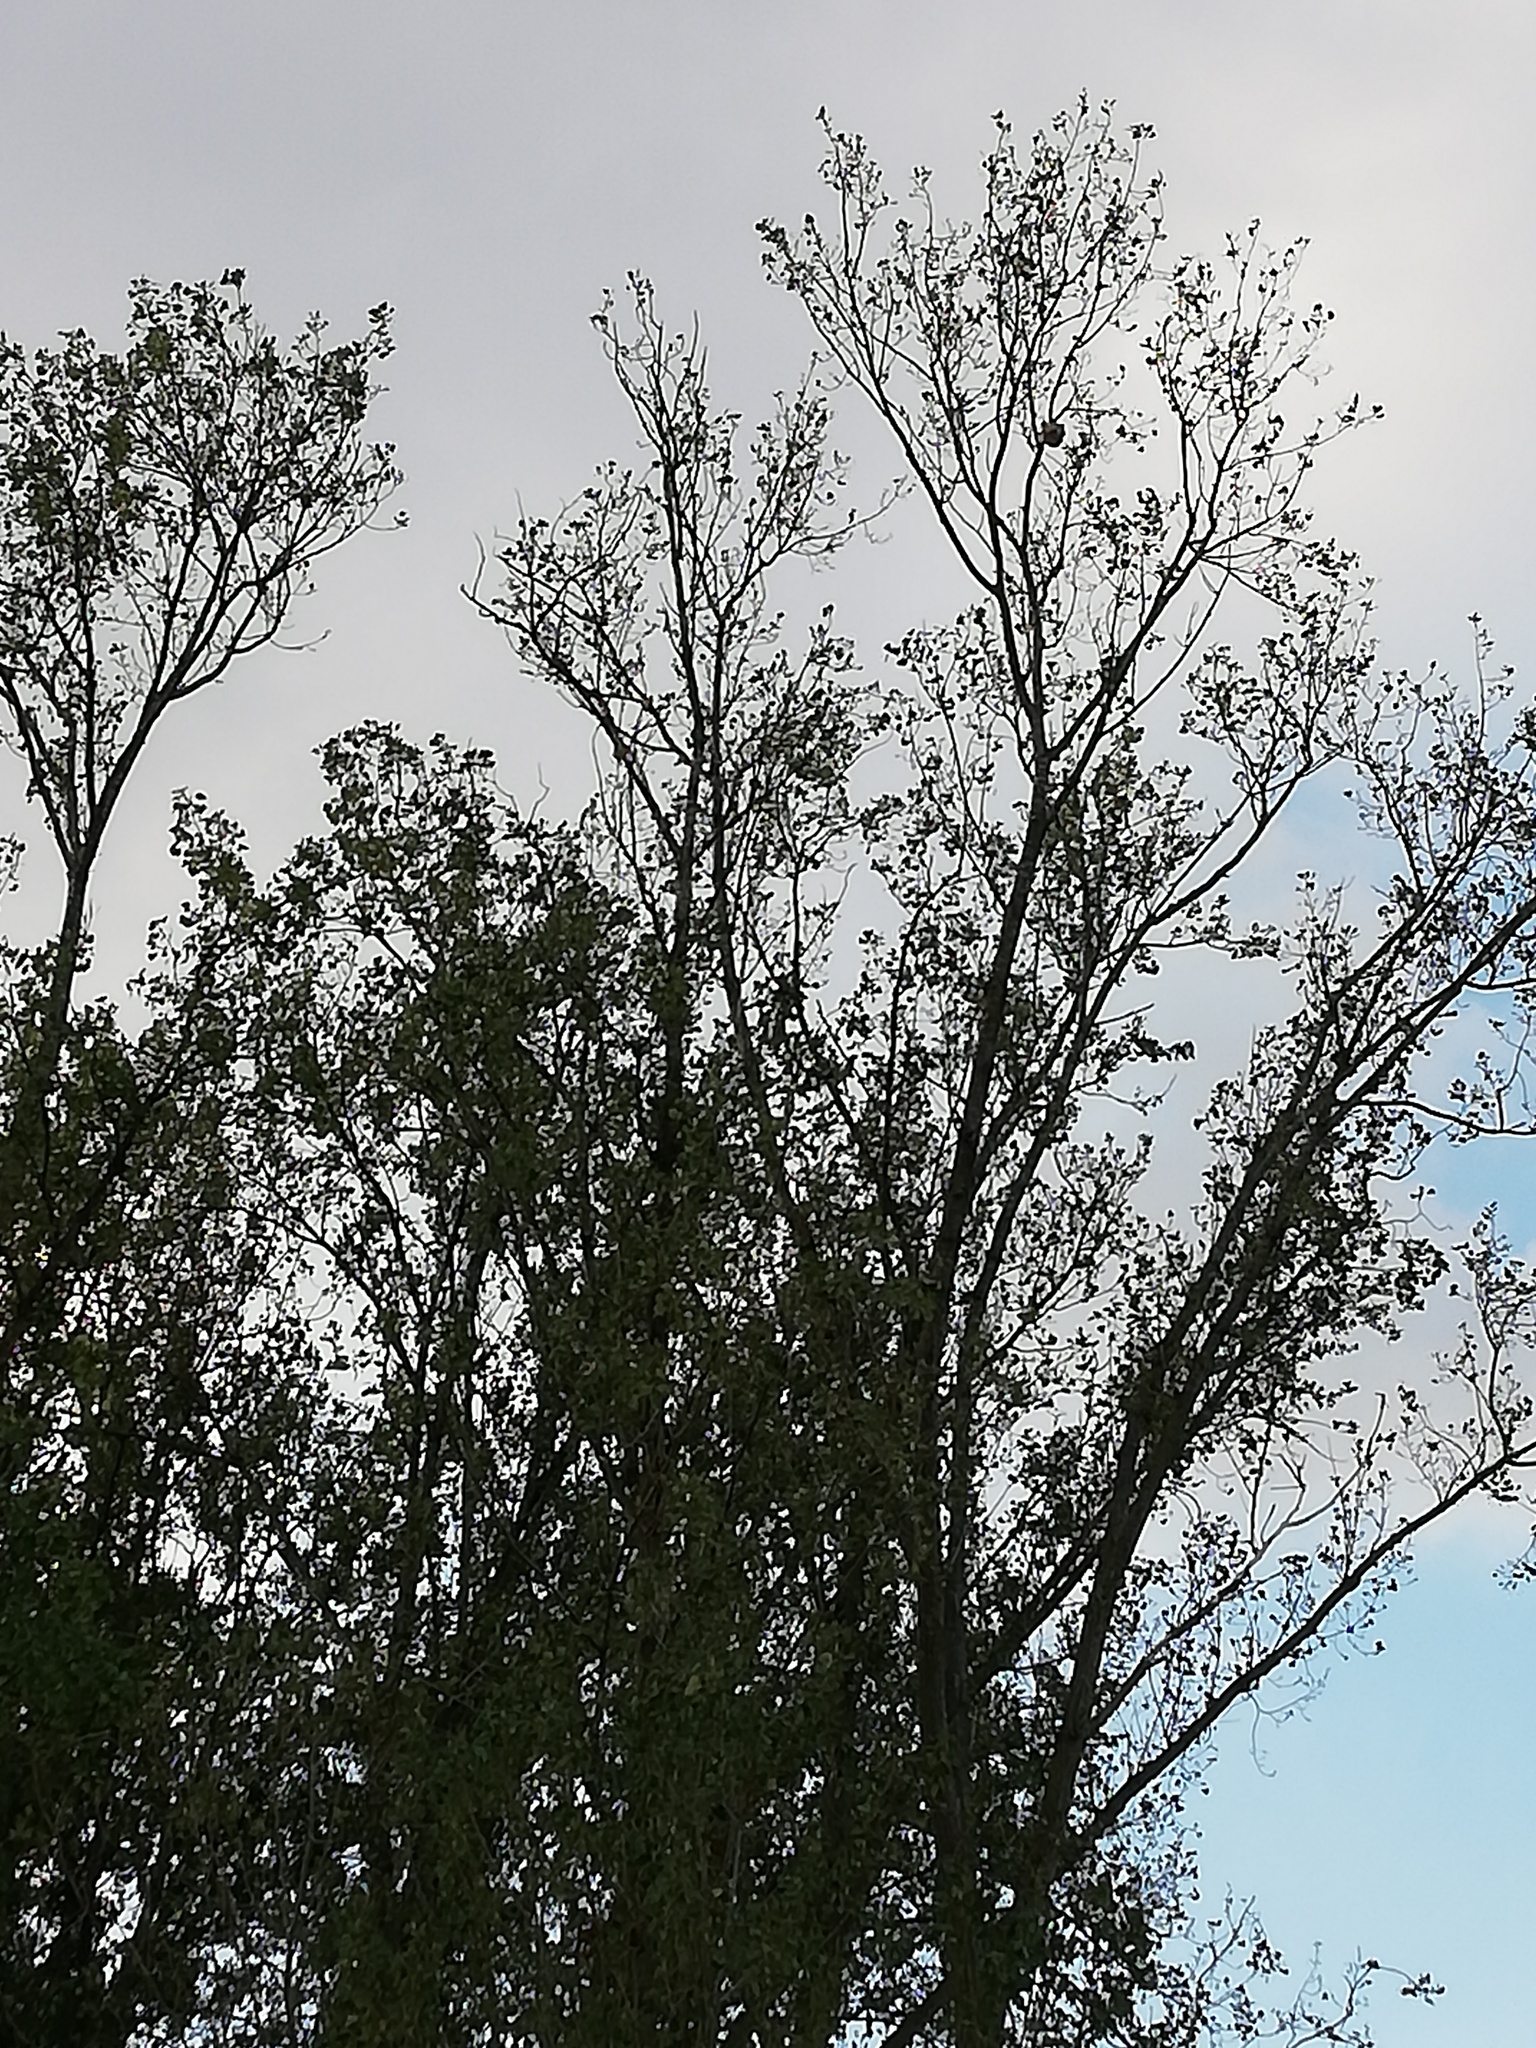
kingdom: Animalia
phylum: Arthropoda
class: Insecta
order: Hymenoptera
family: Vespidae
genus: Vespa
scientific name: Vespa velutina
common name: Asian hornet
